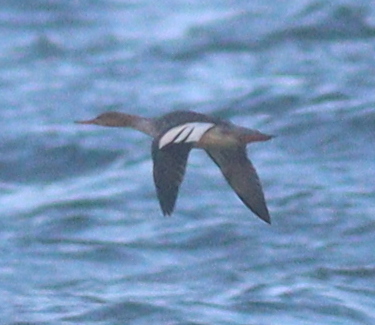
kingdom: Animalia
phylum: Chordata
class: Aves
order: Anseriformes
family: Anatidae
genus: Mergus
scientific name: Mergus serrator
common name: Red-breasted merganser
